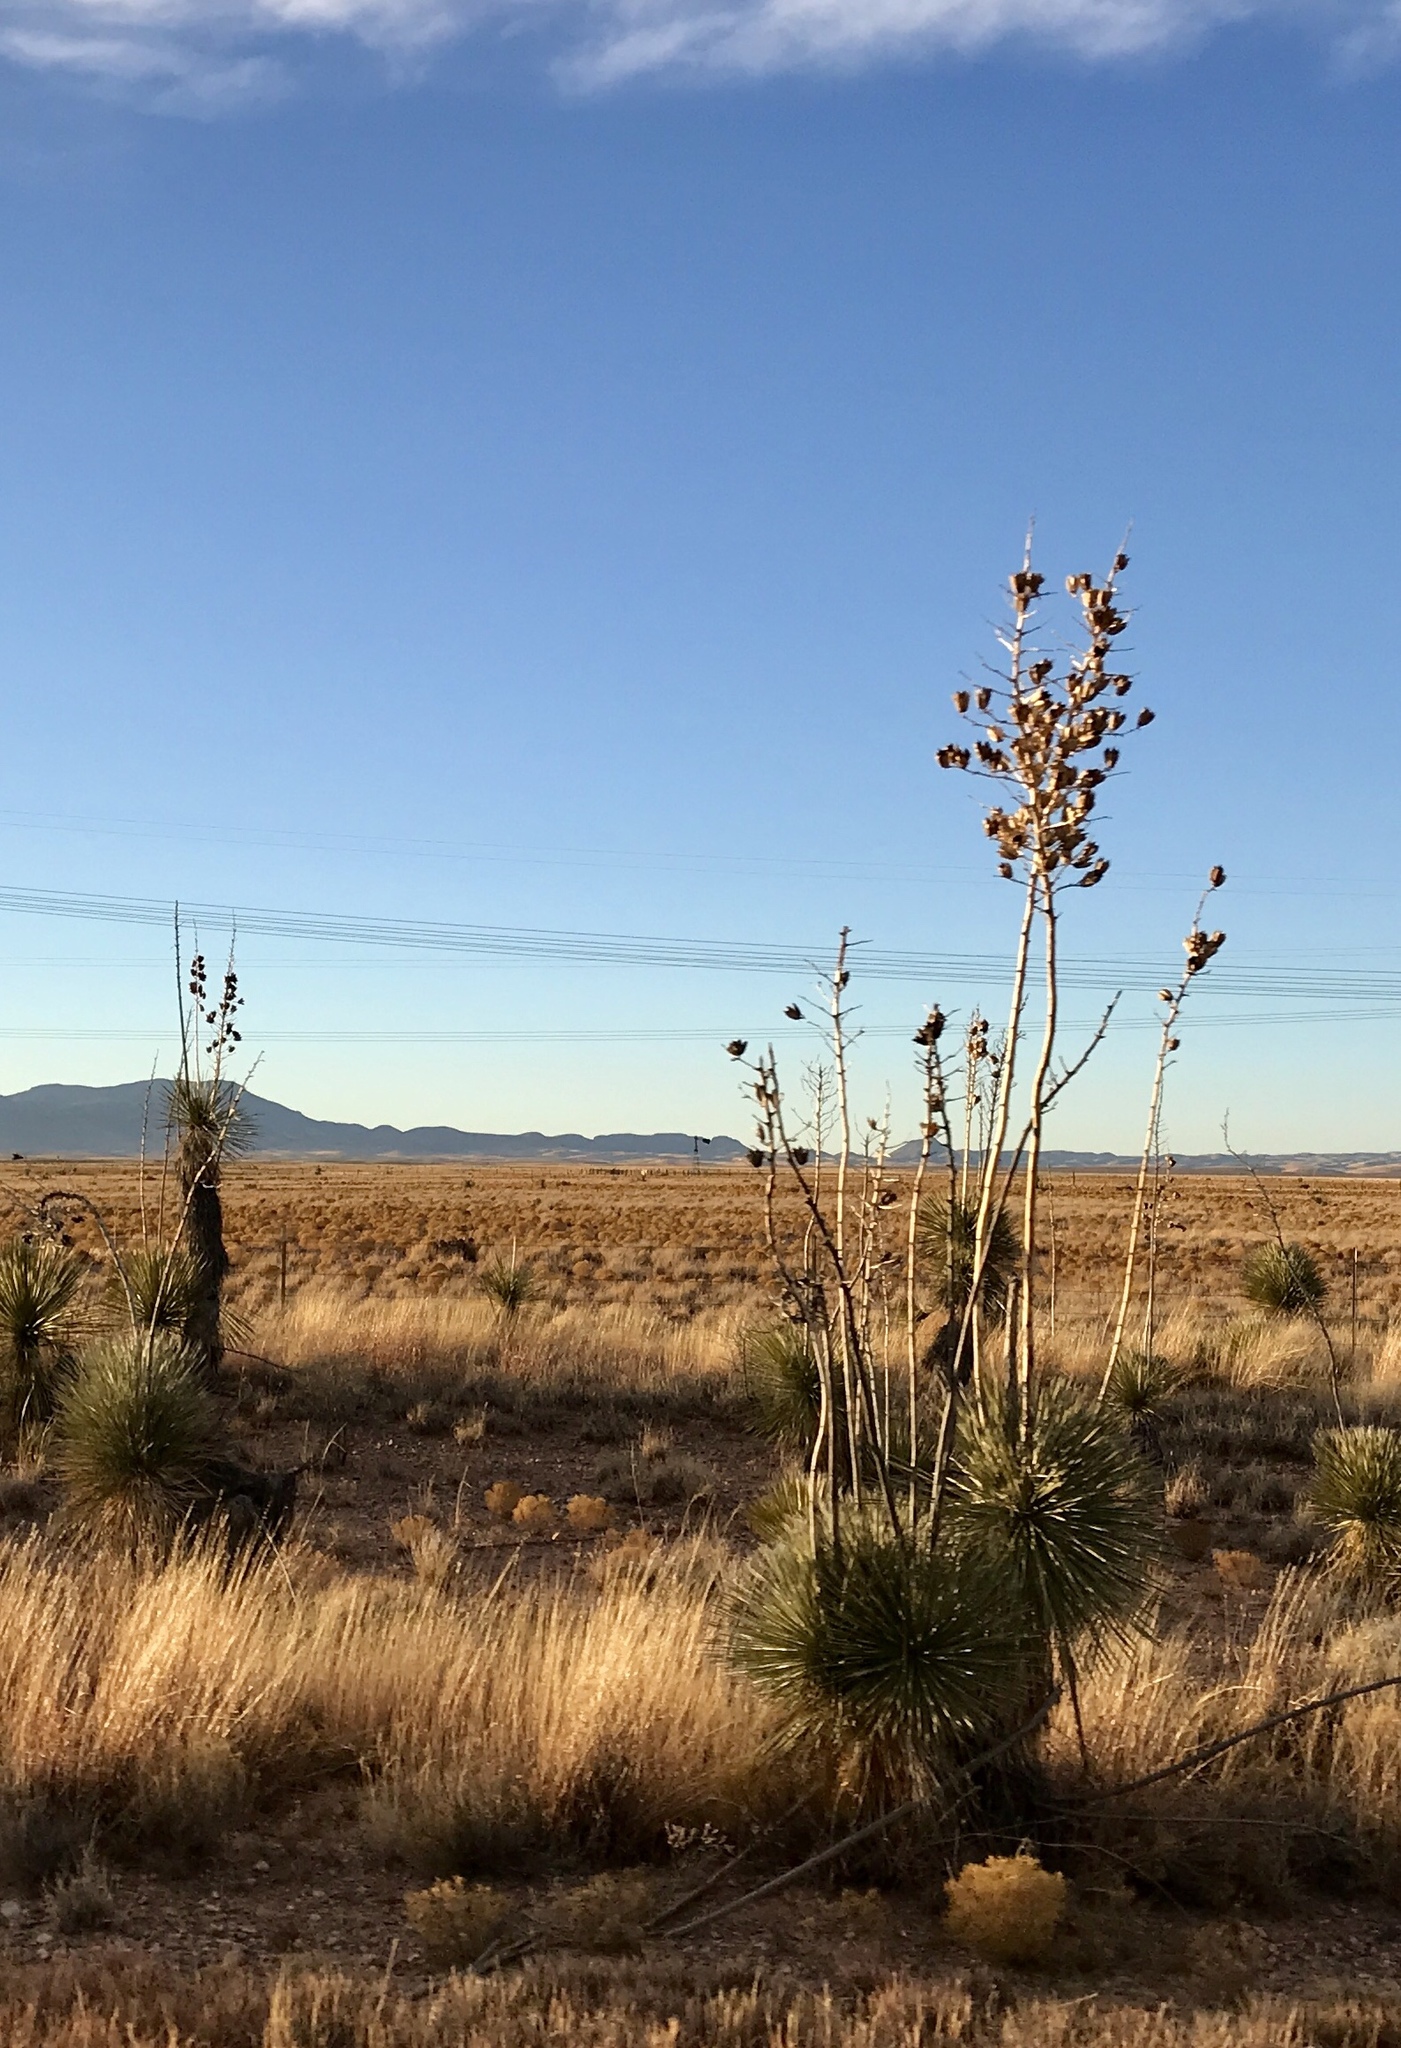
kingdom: Plantae
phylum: Tracheophyta
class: Liliopsida
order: Asparagales
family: Asparagaceae
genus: Yucca
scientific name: Yucca elata
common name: Palmella
